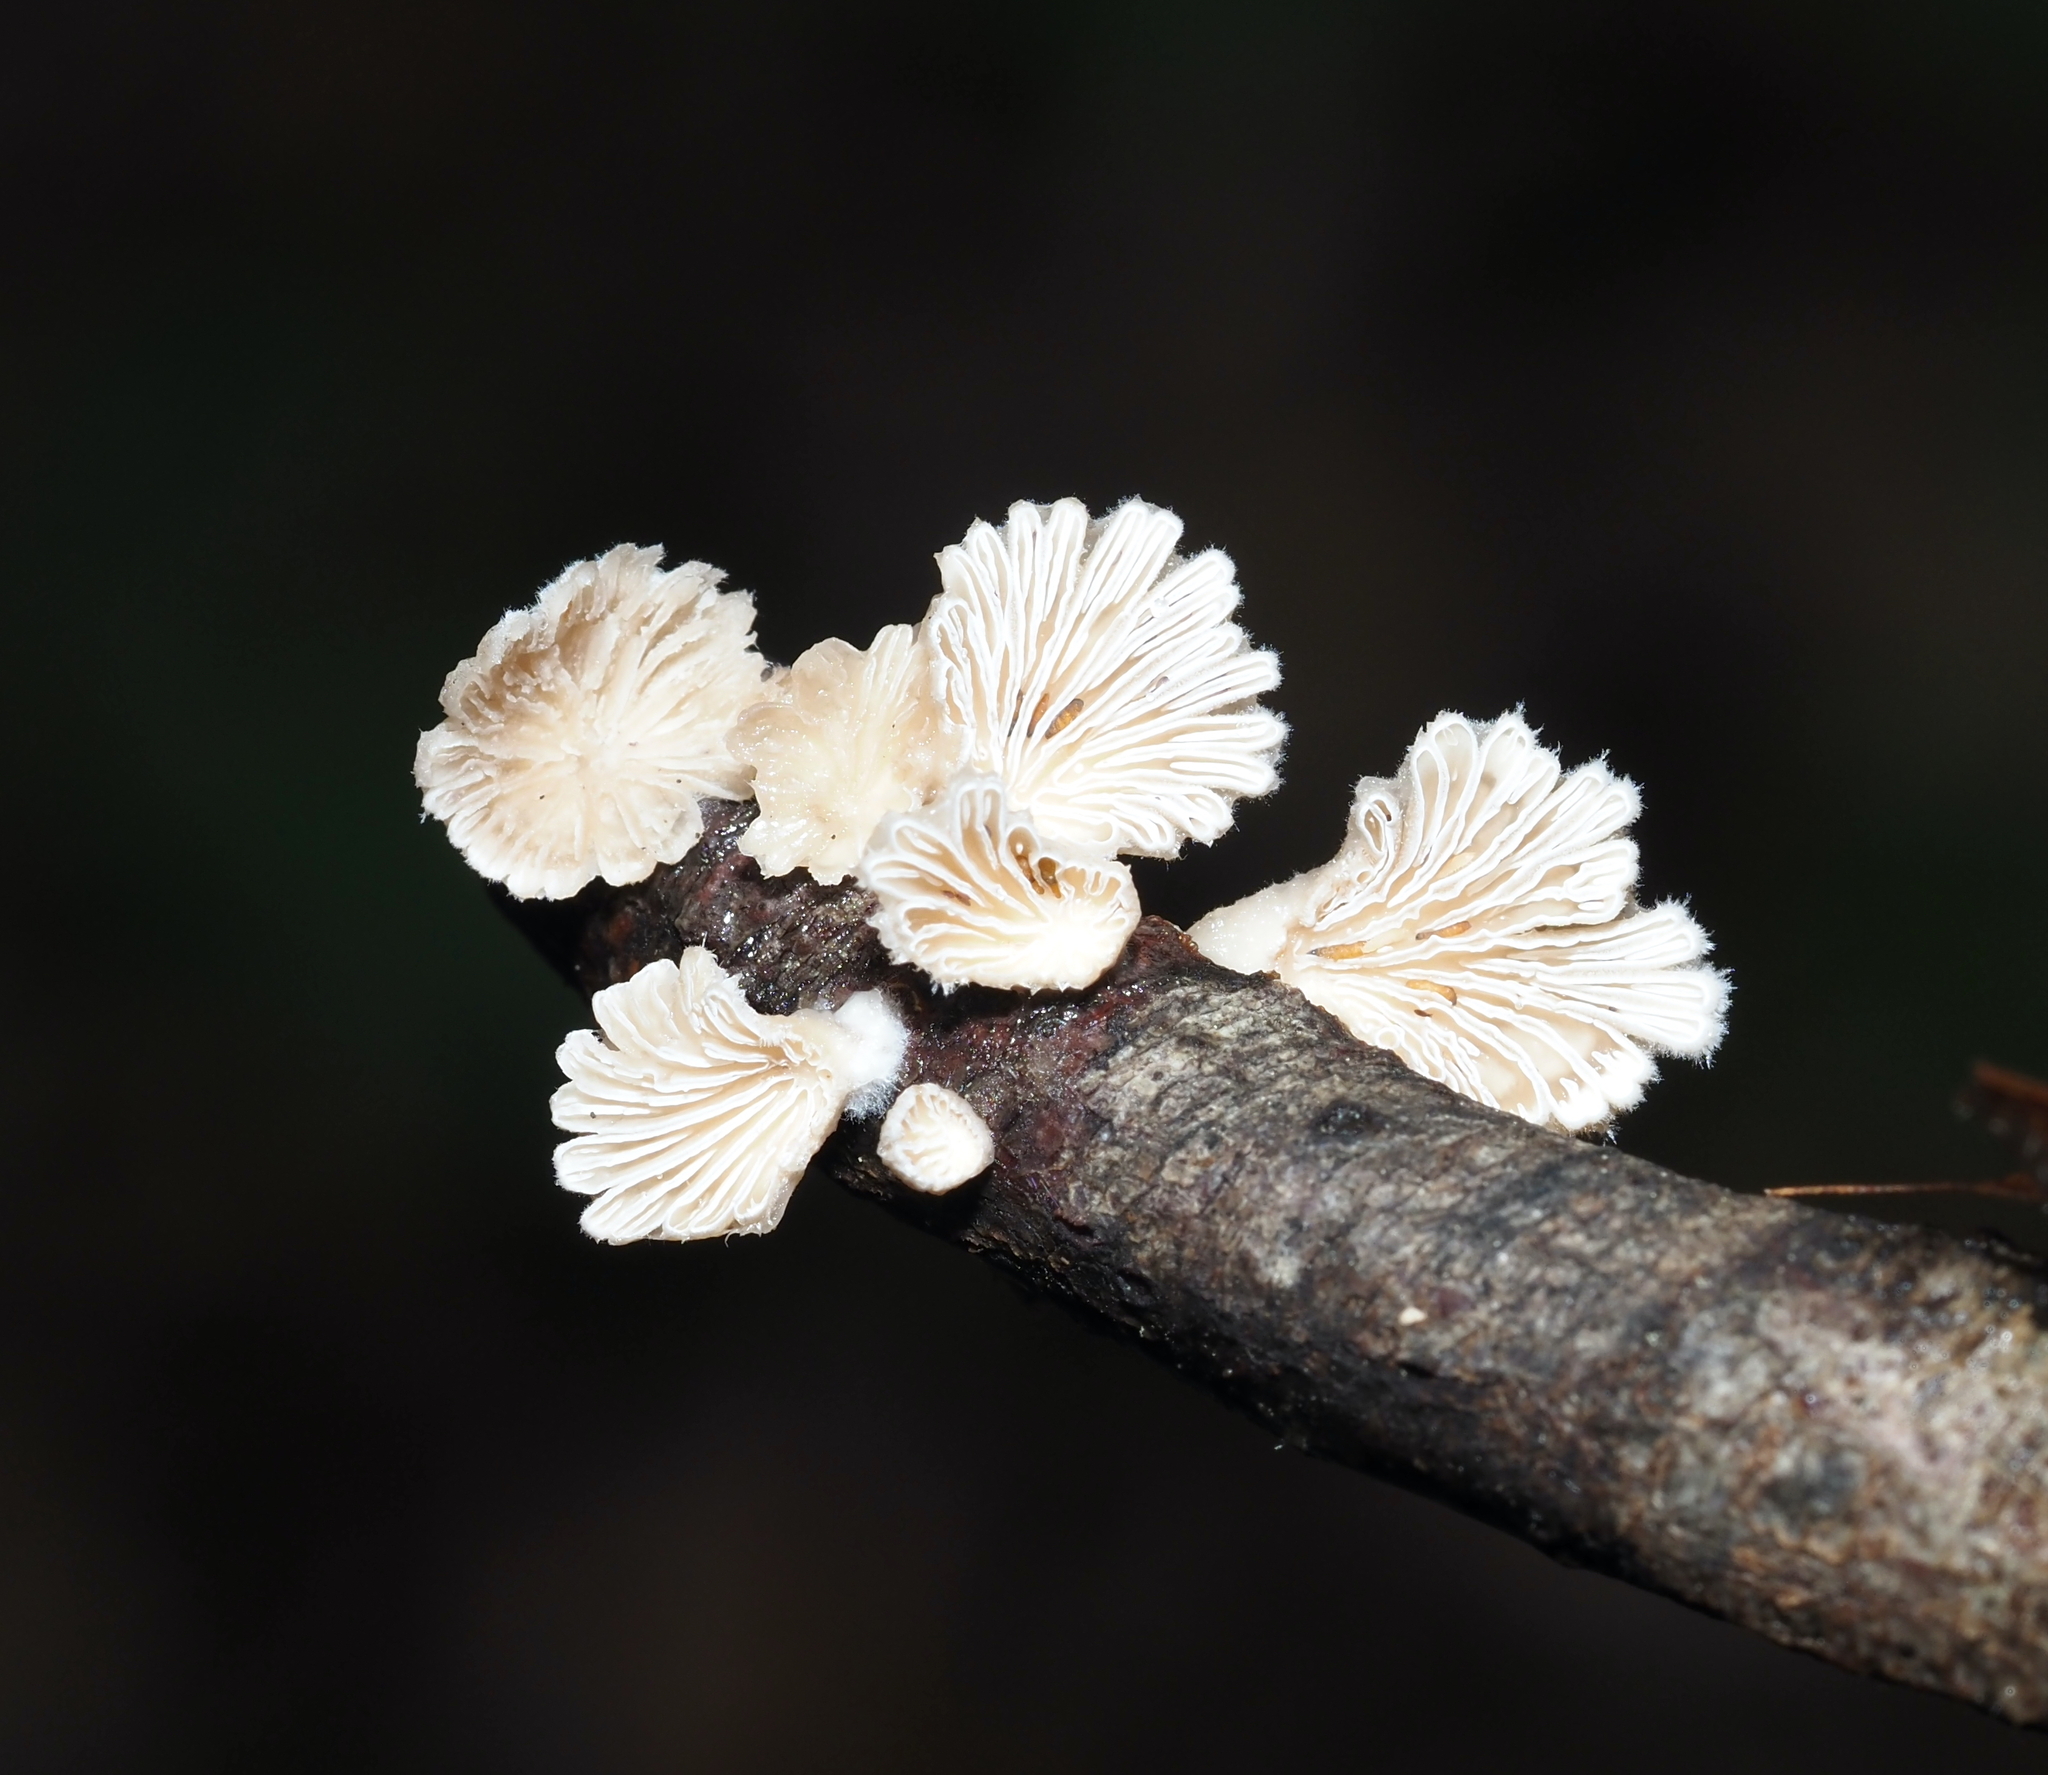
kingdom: Fungi
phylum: Basidiomycota
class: Agaricomycetes
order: Agaricales
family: Schizophyllaceae
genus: Schizophyllum
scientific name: Schizophyllum commune
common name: Common porecrust
